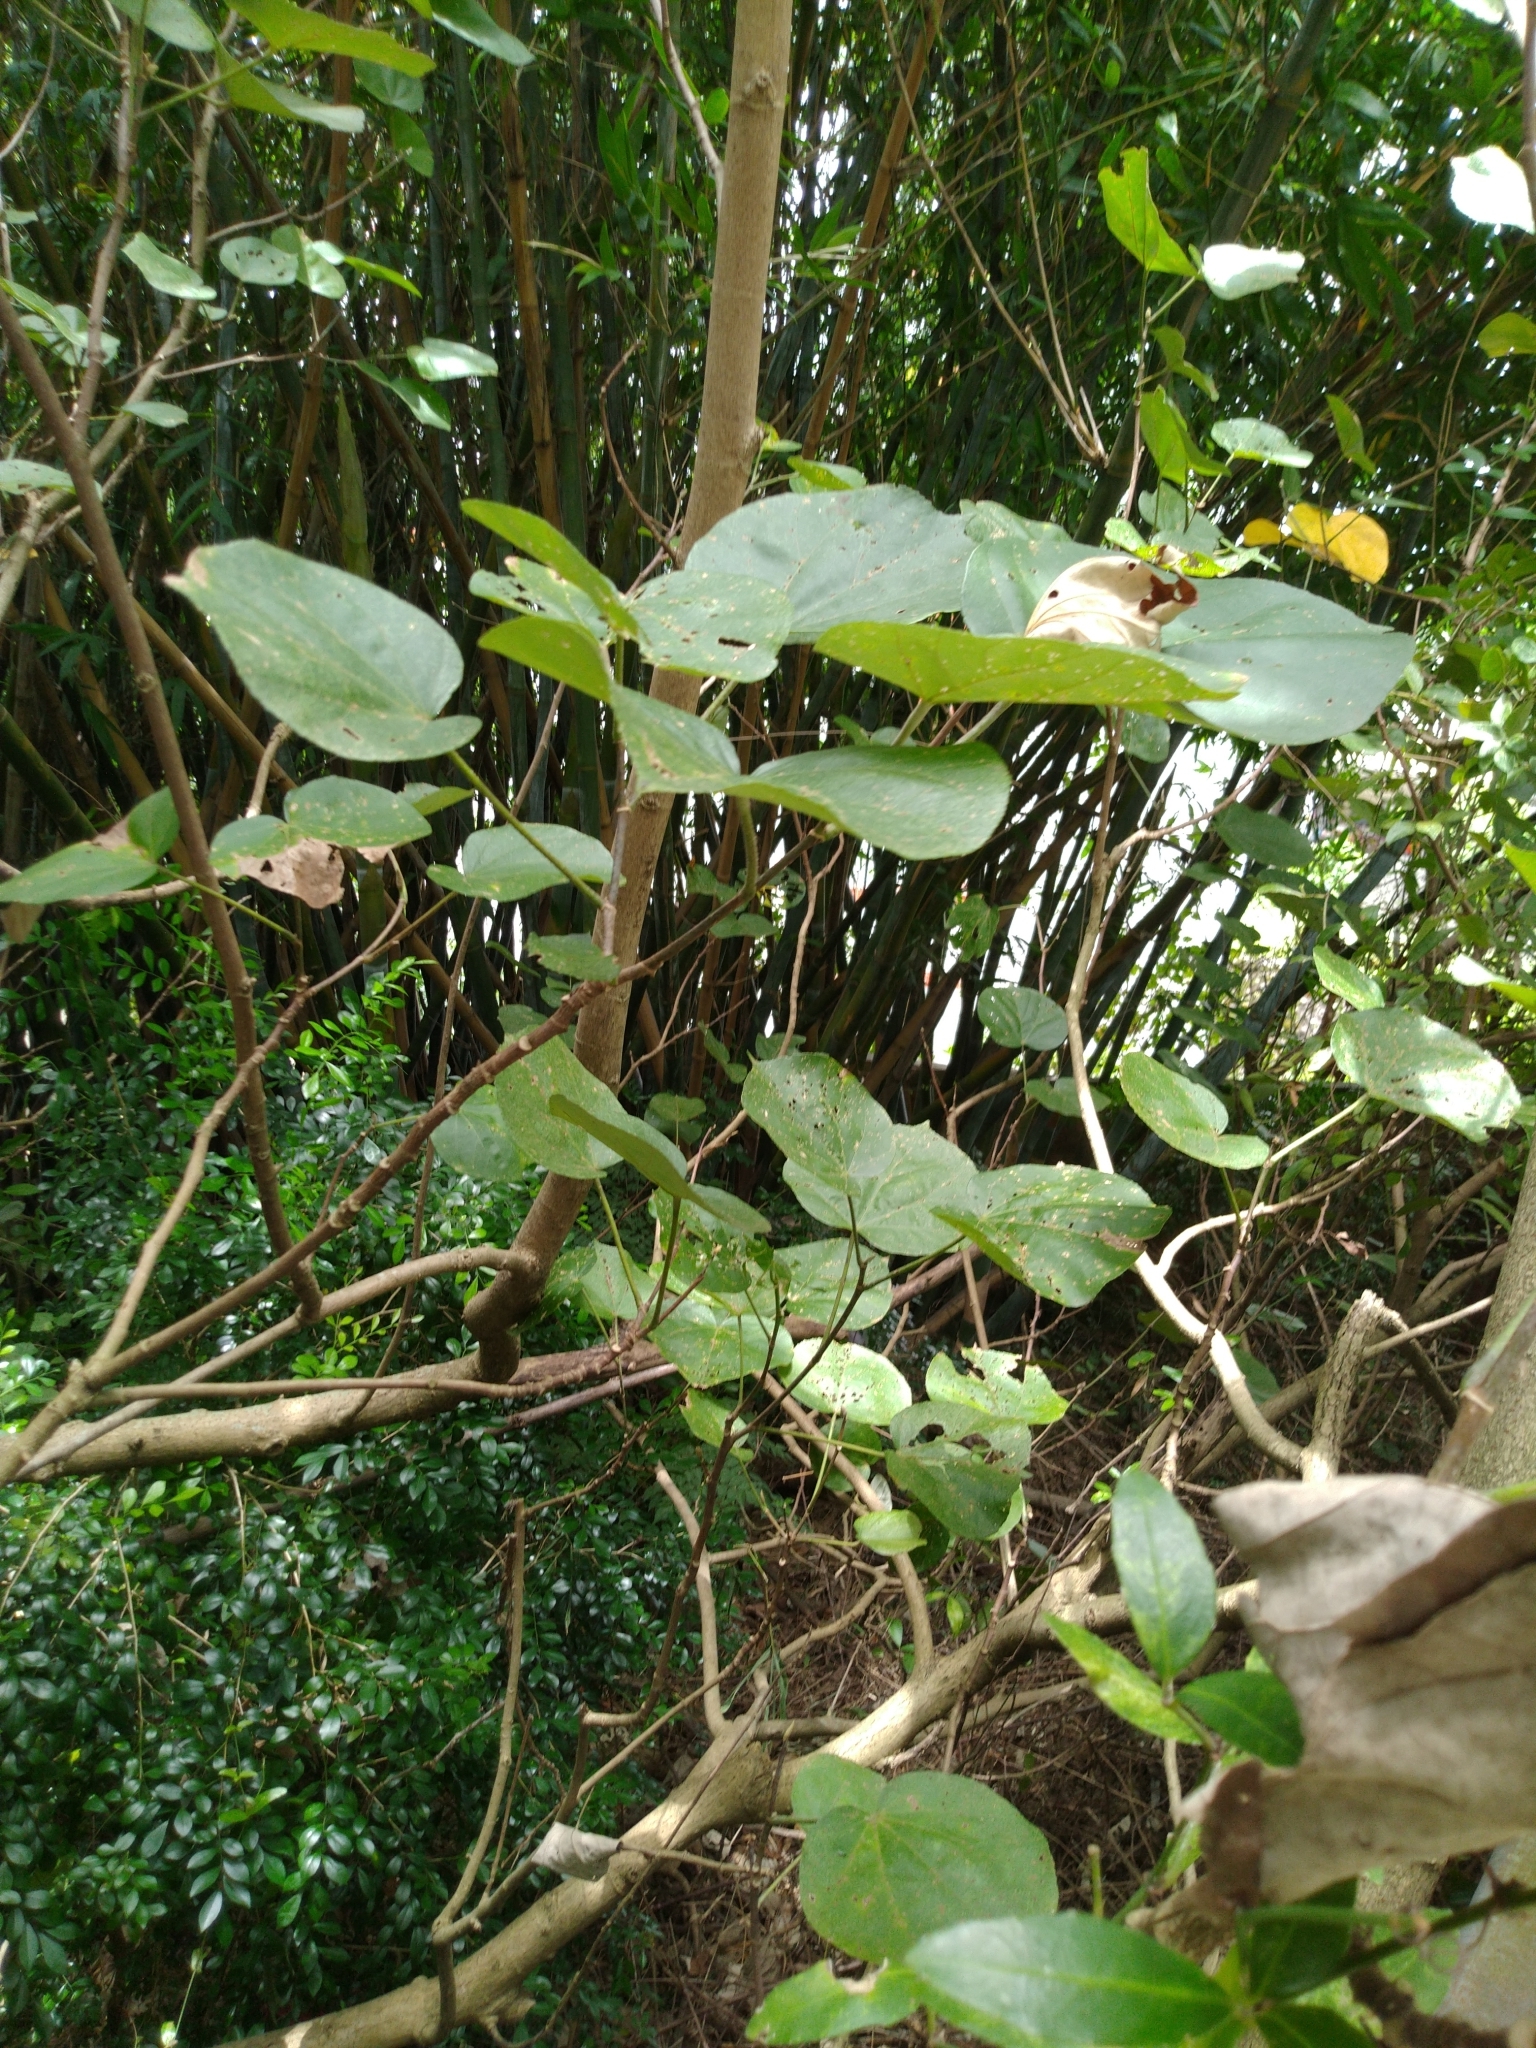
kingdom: Plantae
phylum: Tracheophyta
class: Magnoliopsida
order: Malvales
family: Malvaceae
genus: Talipariti
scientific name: Talipariti tiliaceum
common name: Sea hibiscus
